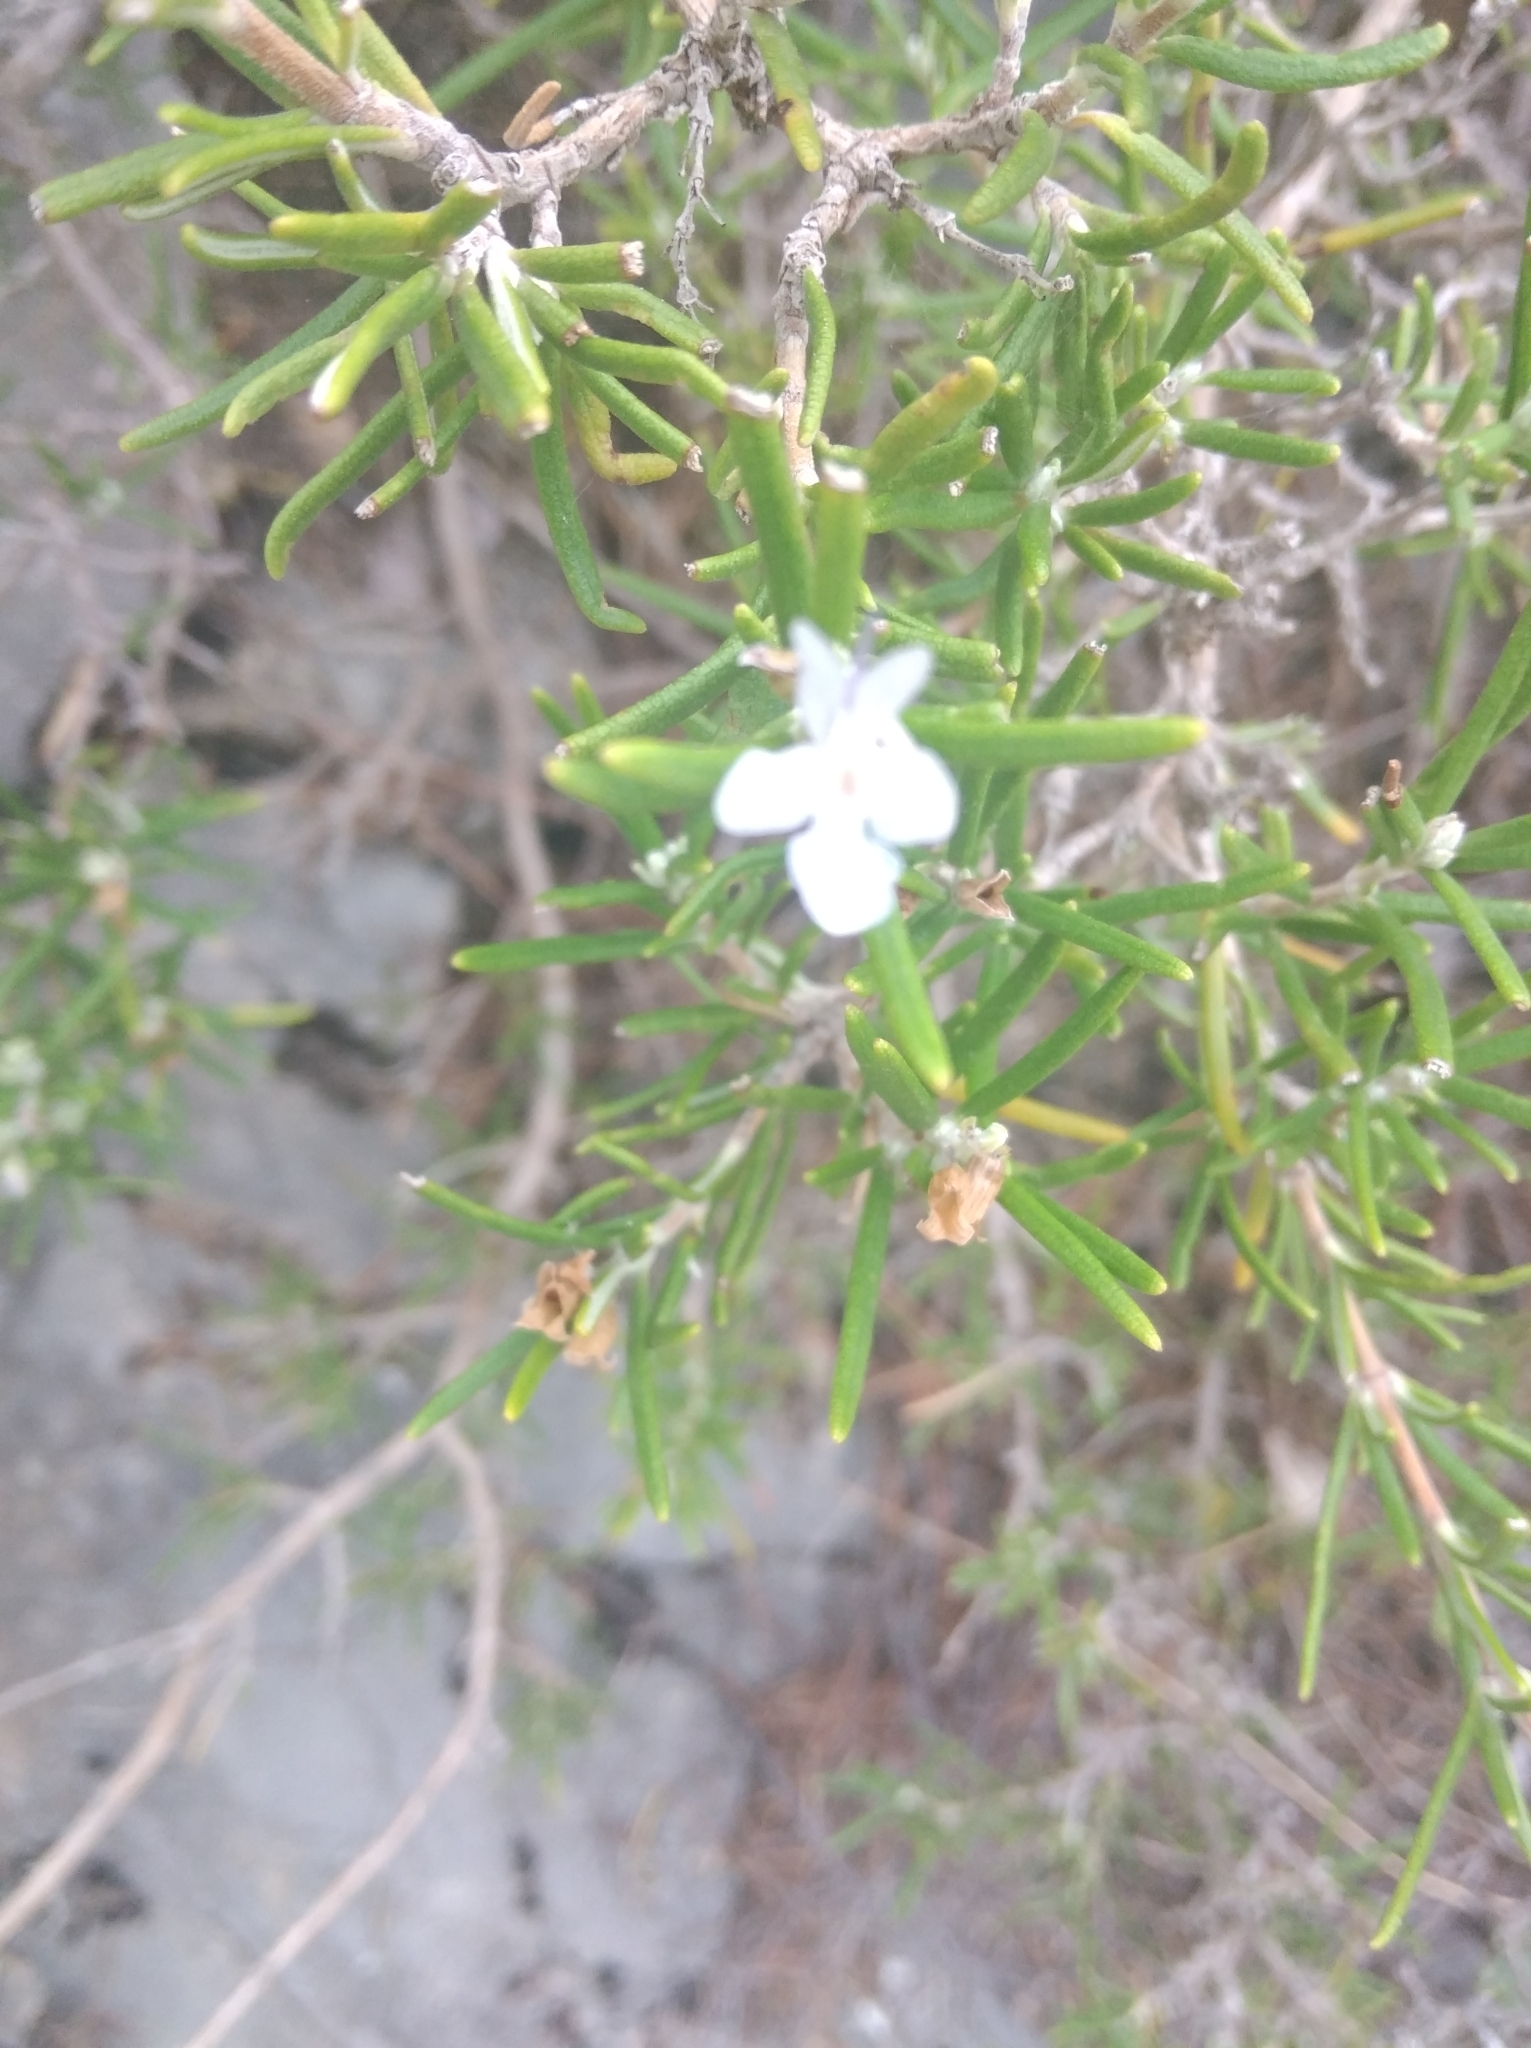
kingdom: Plantae
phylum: Tracheophyta
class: Magnoliopsida
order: Lamiales
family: Lamiaceae
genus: Salvia
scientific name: Salvia rosmarinus
